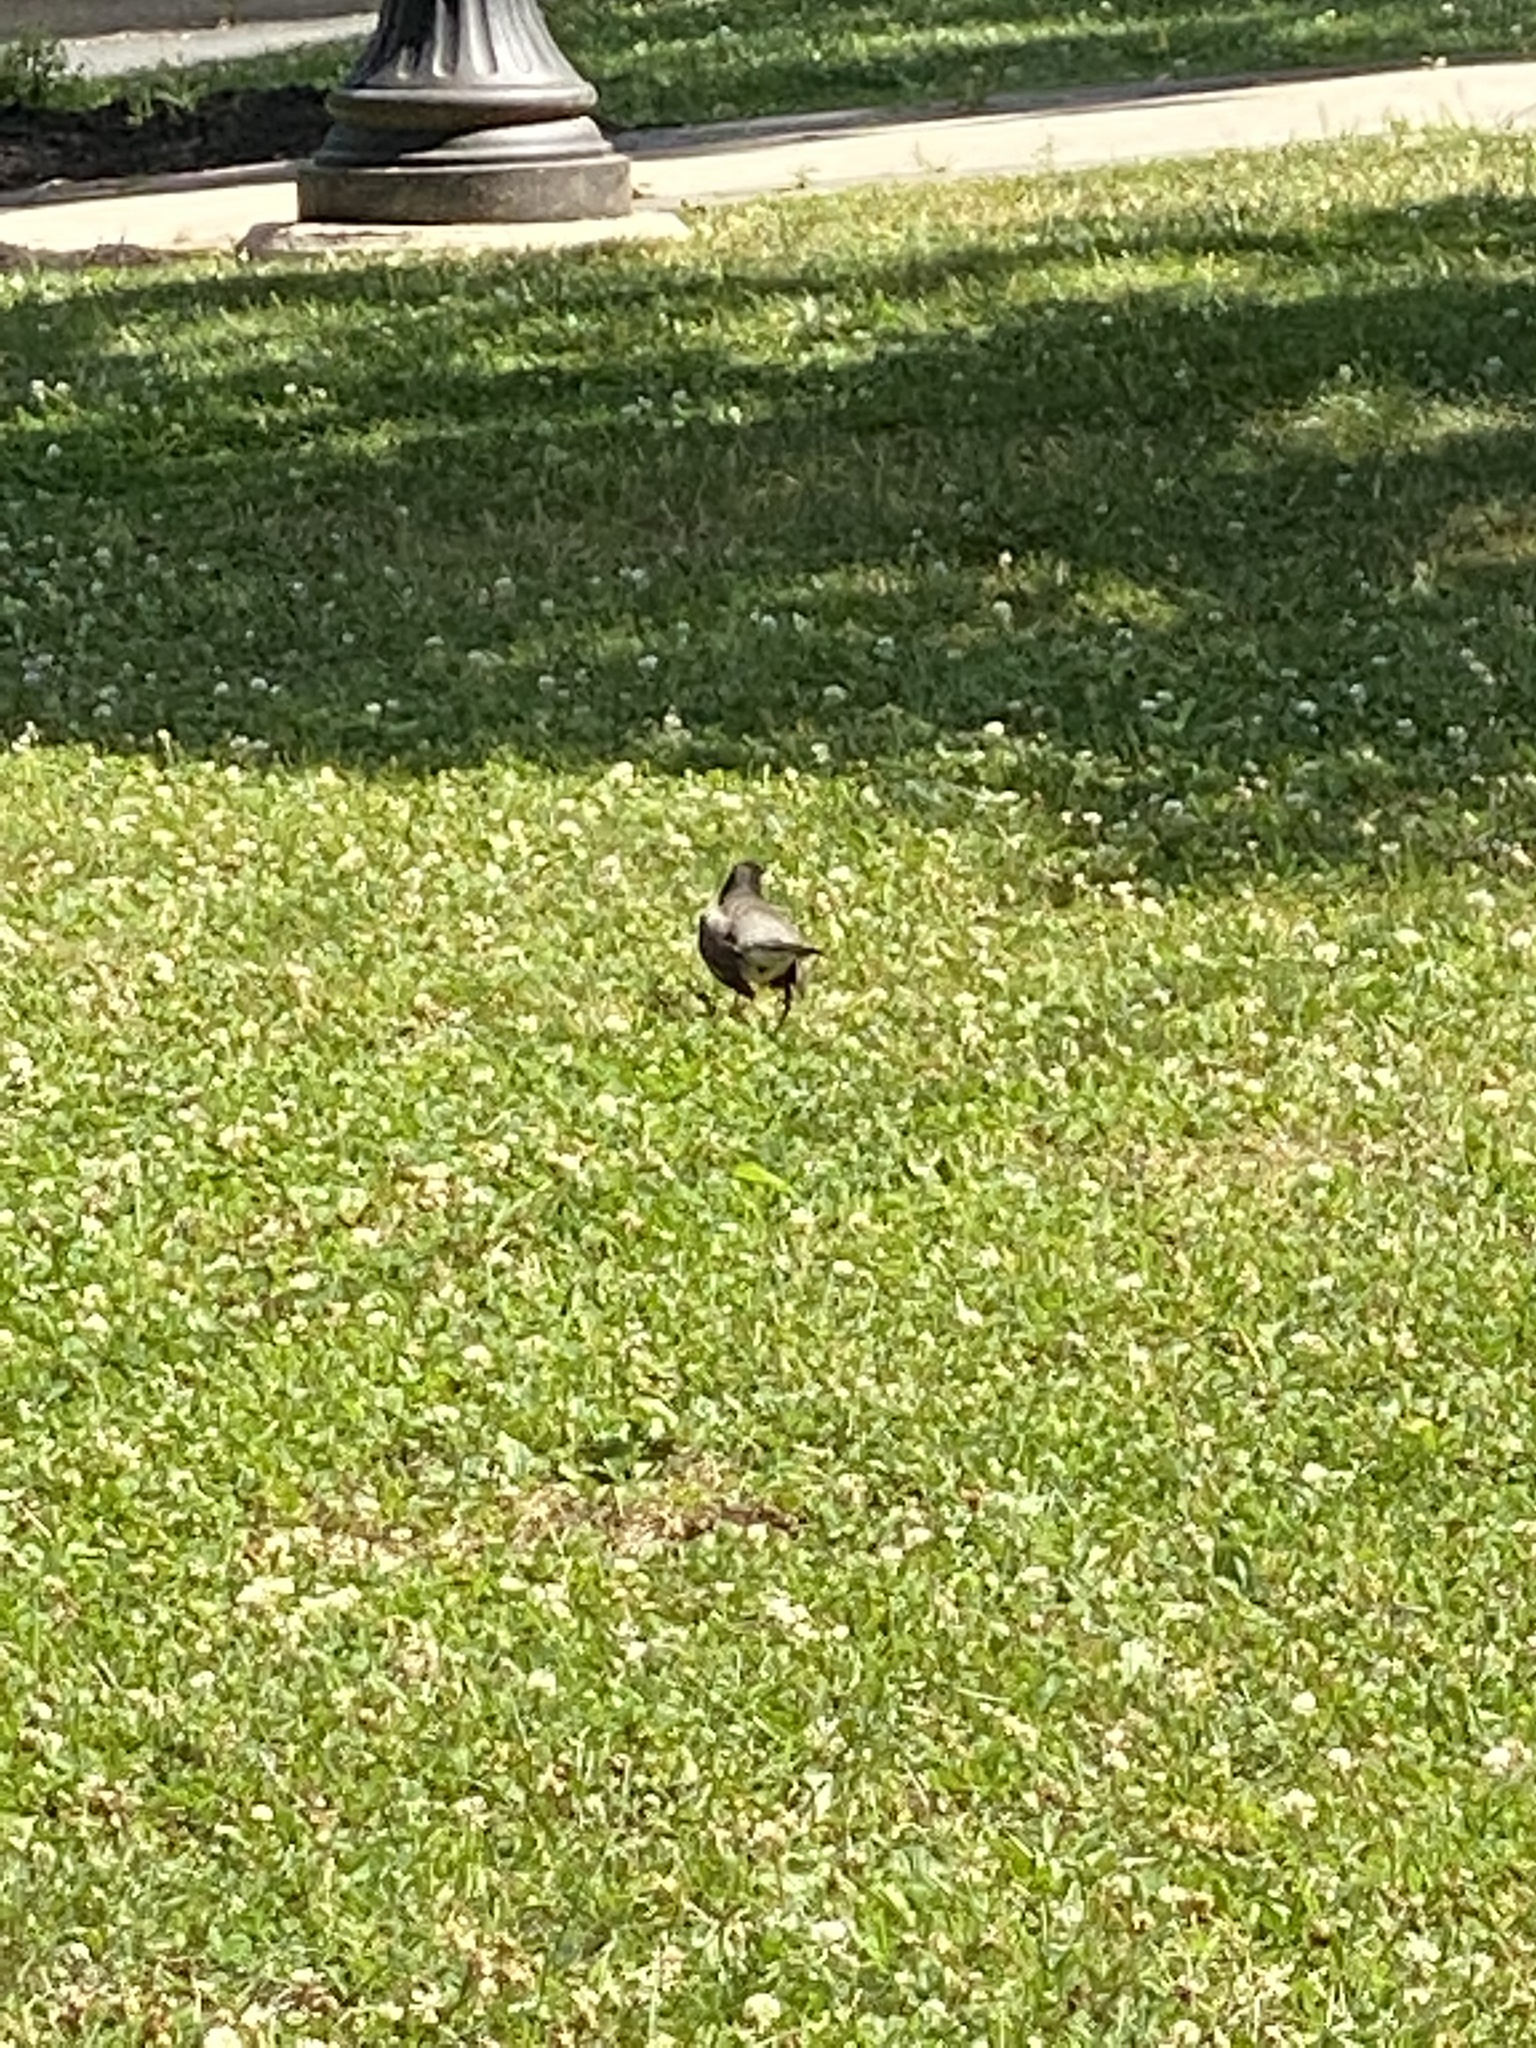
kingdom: Animalia
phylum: Chordata
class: Aves
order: Passeriformes
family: Turdidae
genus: Turdus
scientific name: Turdus migratorius
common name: American robin
